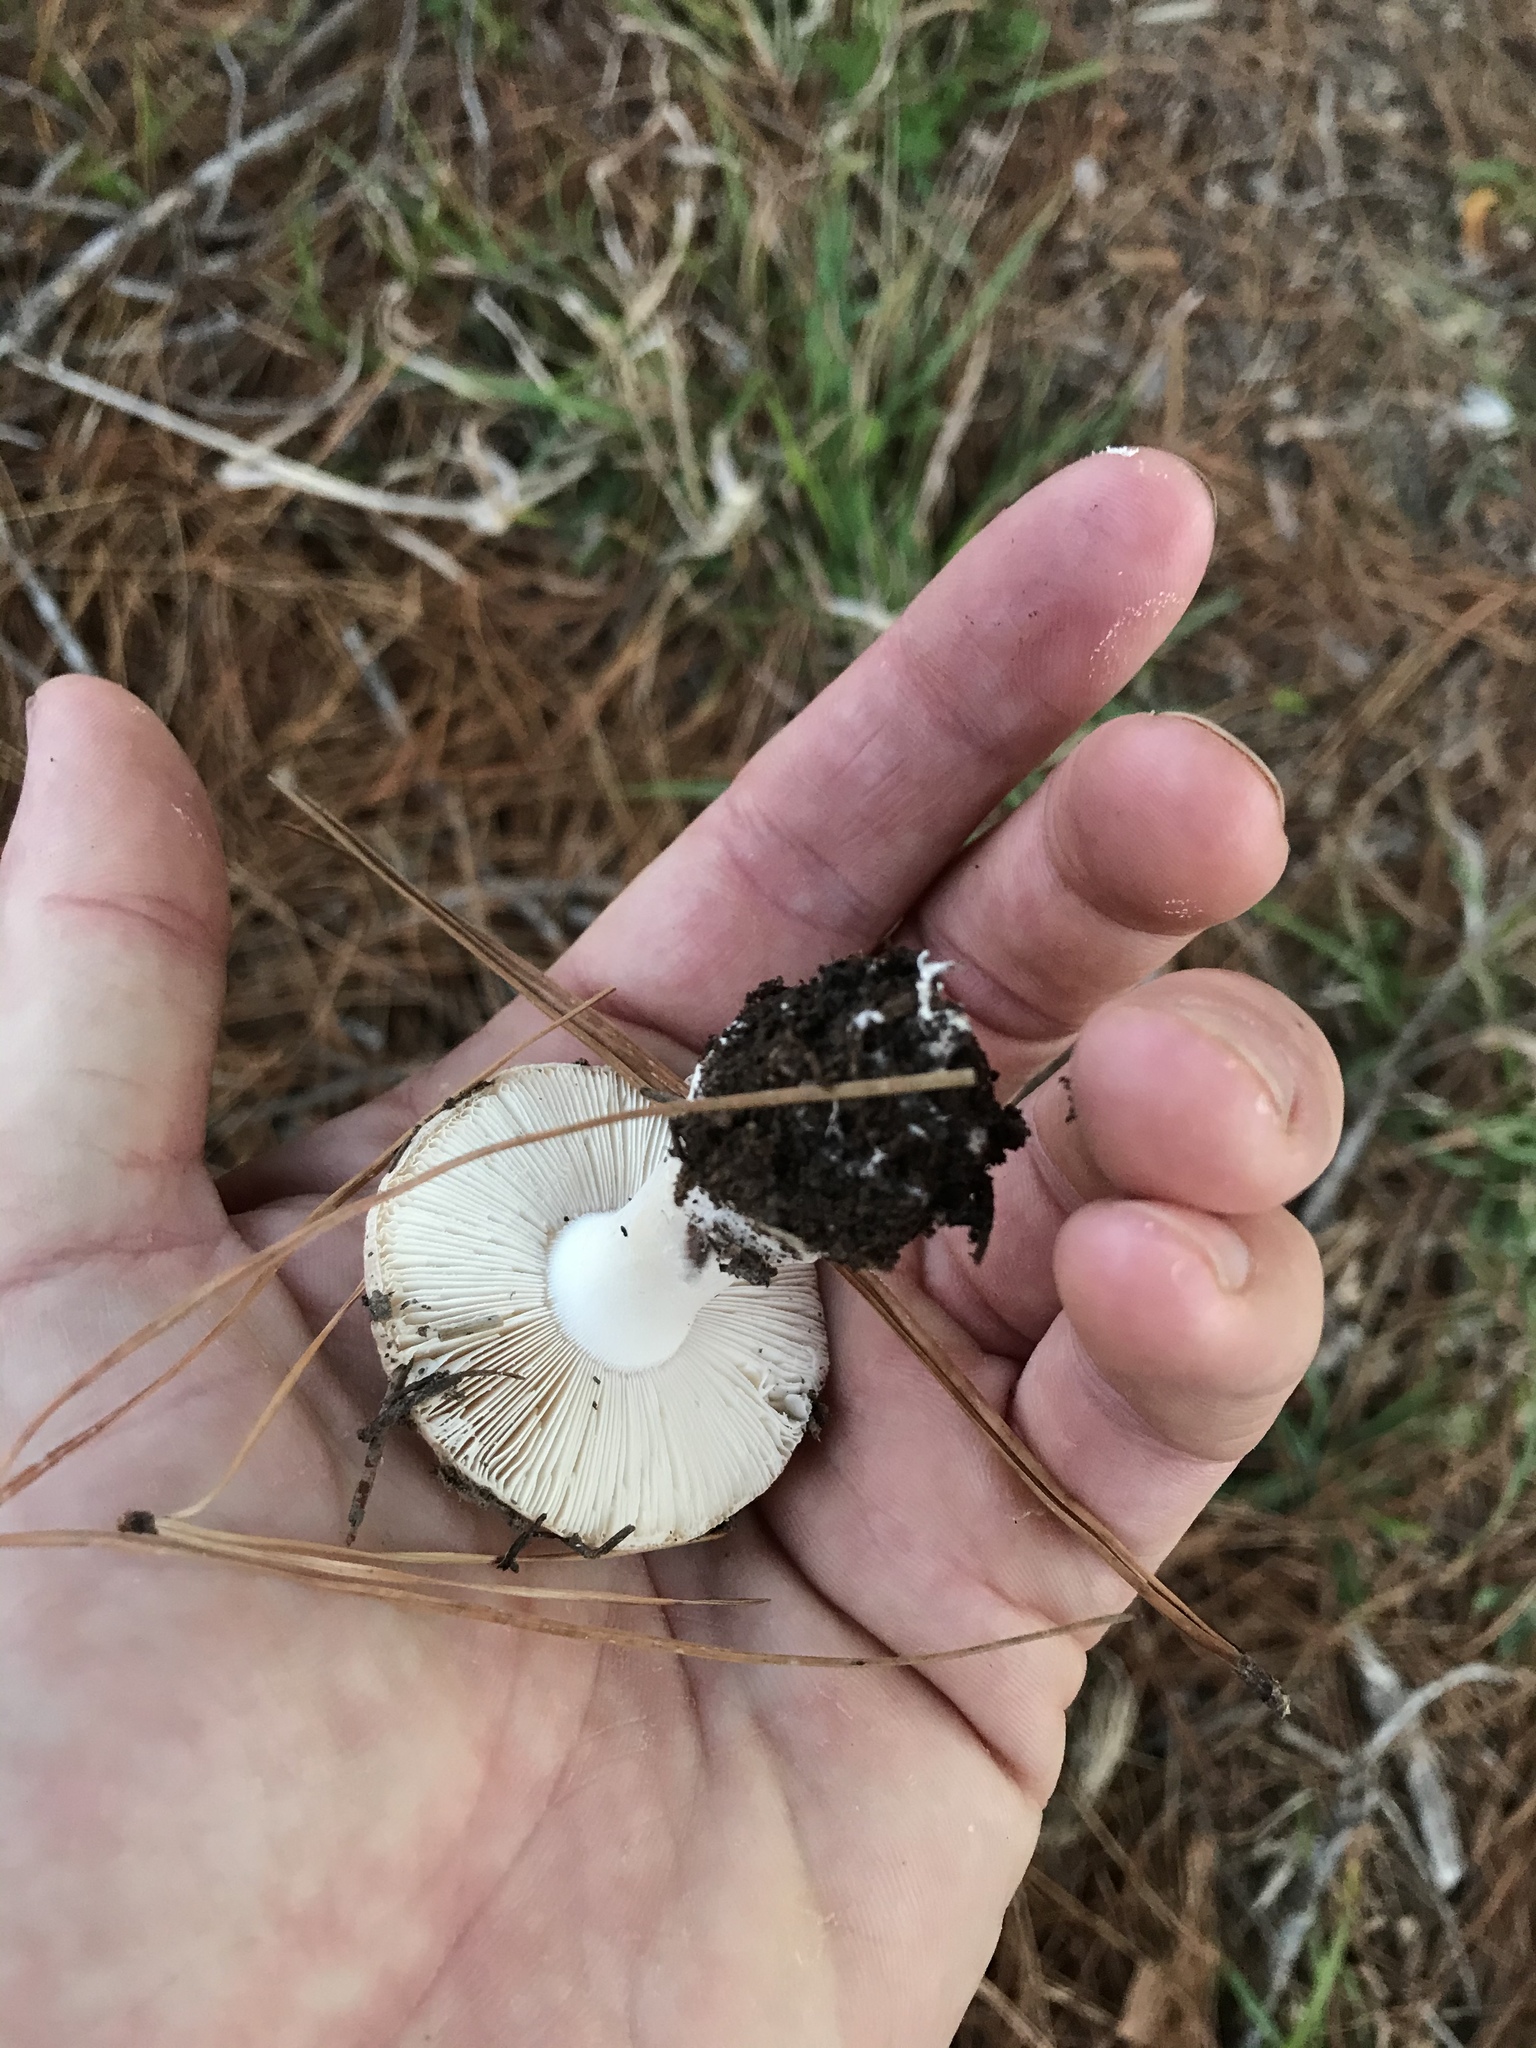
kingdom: Fungi
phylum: Basidiomycota
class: Agaricomycetes
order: Agaricales
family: Amanitaceae
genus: Amanita
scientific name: Amanita gemmata
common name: Jewelled amanita
